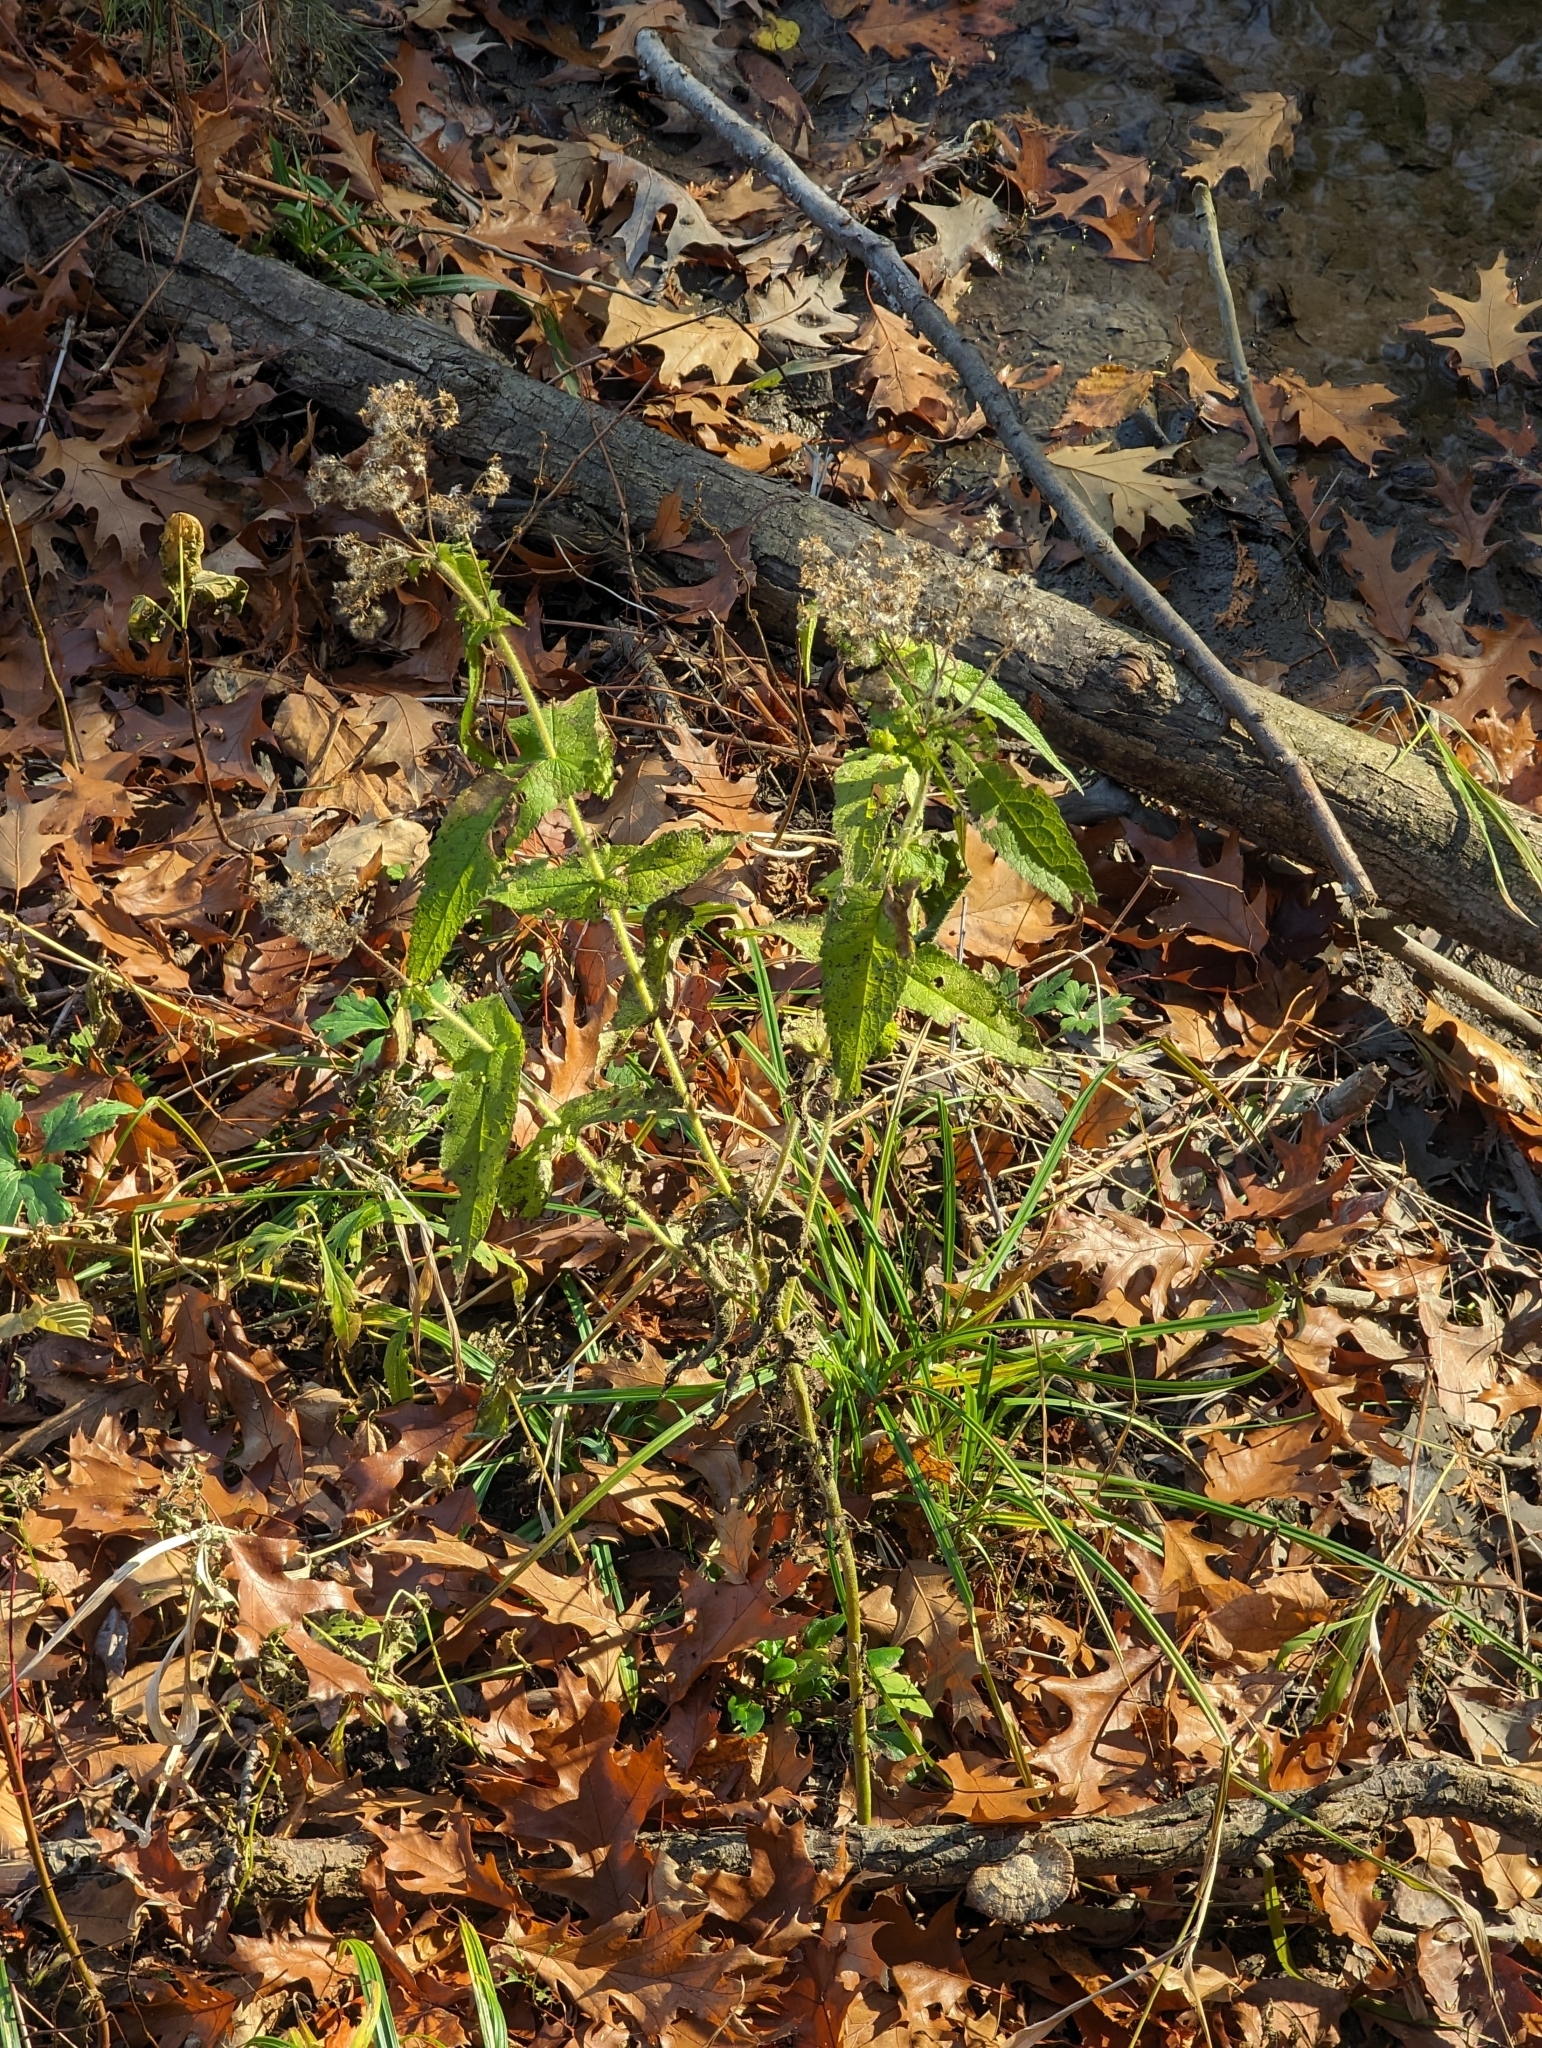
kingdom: Plantae
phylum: Tracheophyta
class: Magnoliopsida
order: Asterales
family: Asteraceae
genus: Eupatorium
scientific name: Eupatorium perfoliatum
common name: Boneset
